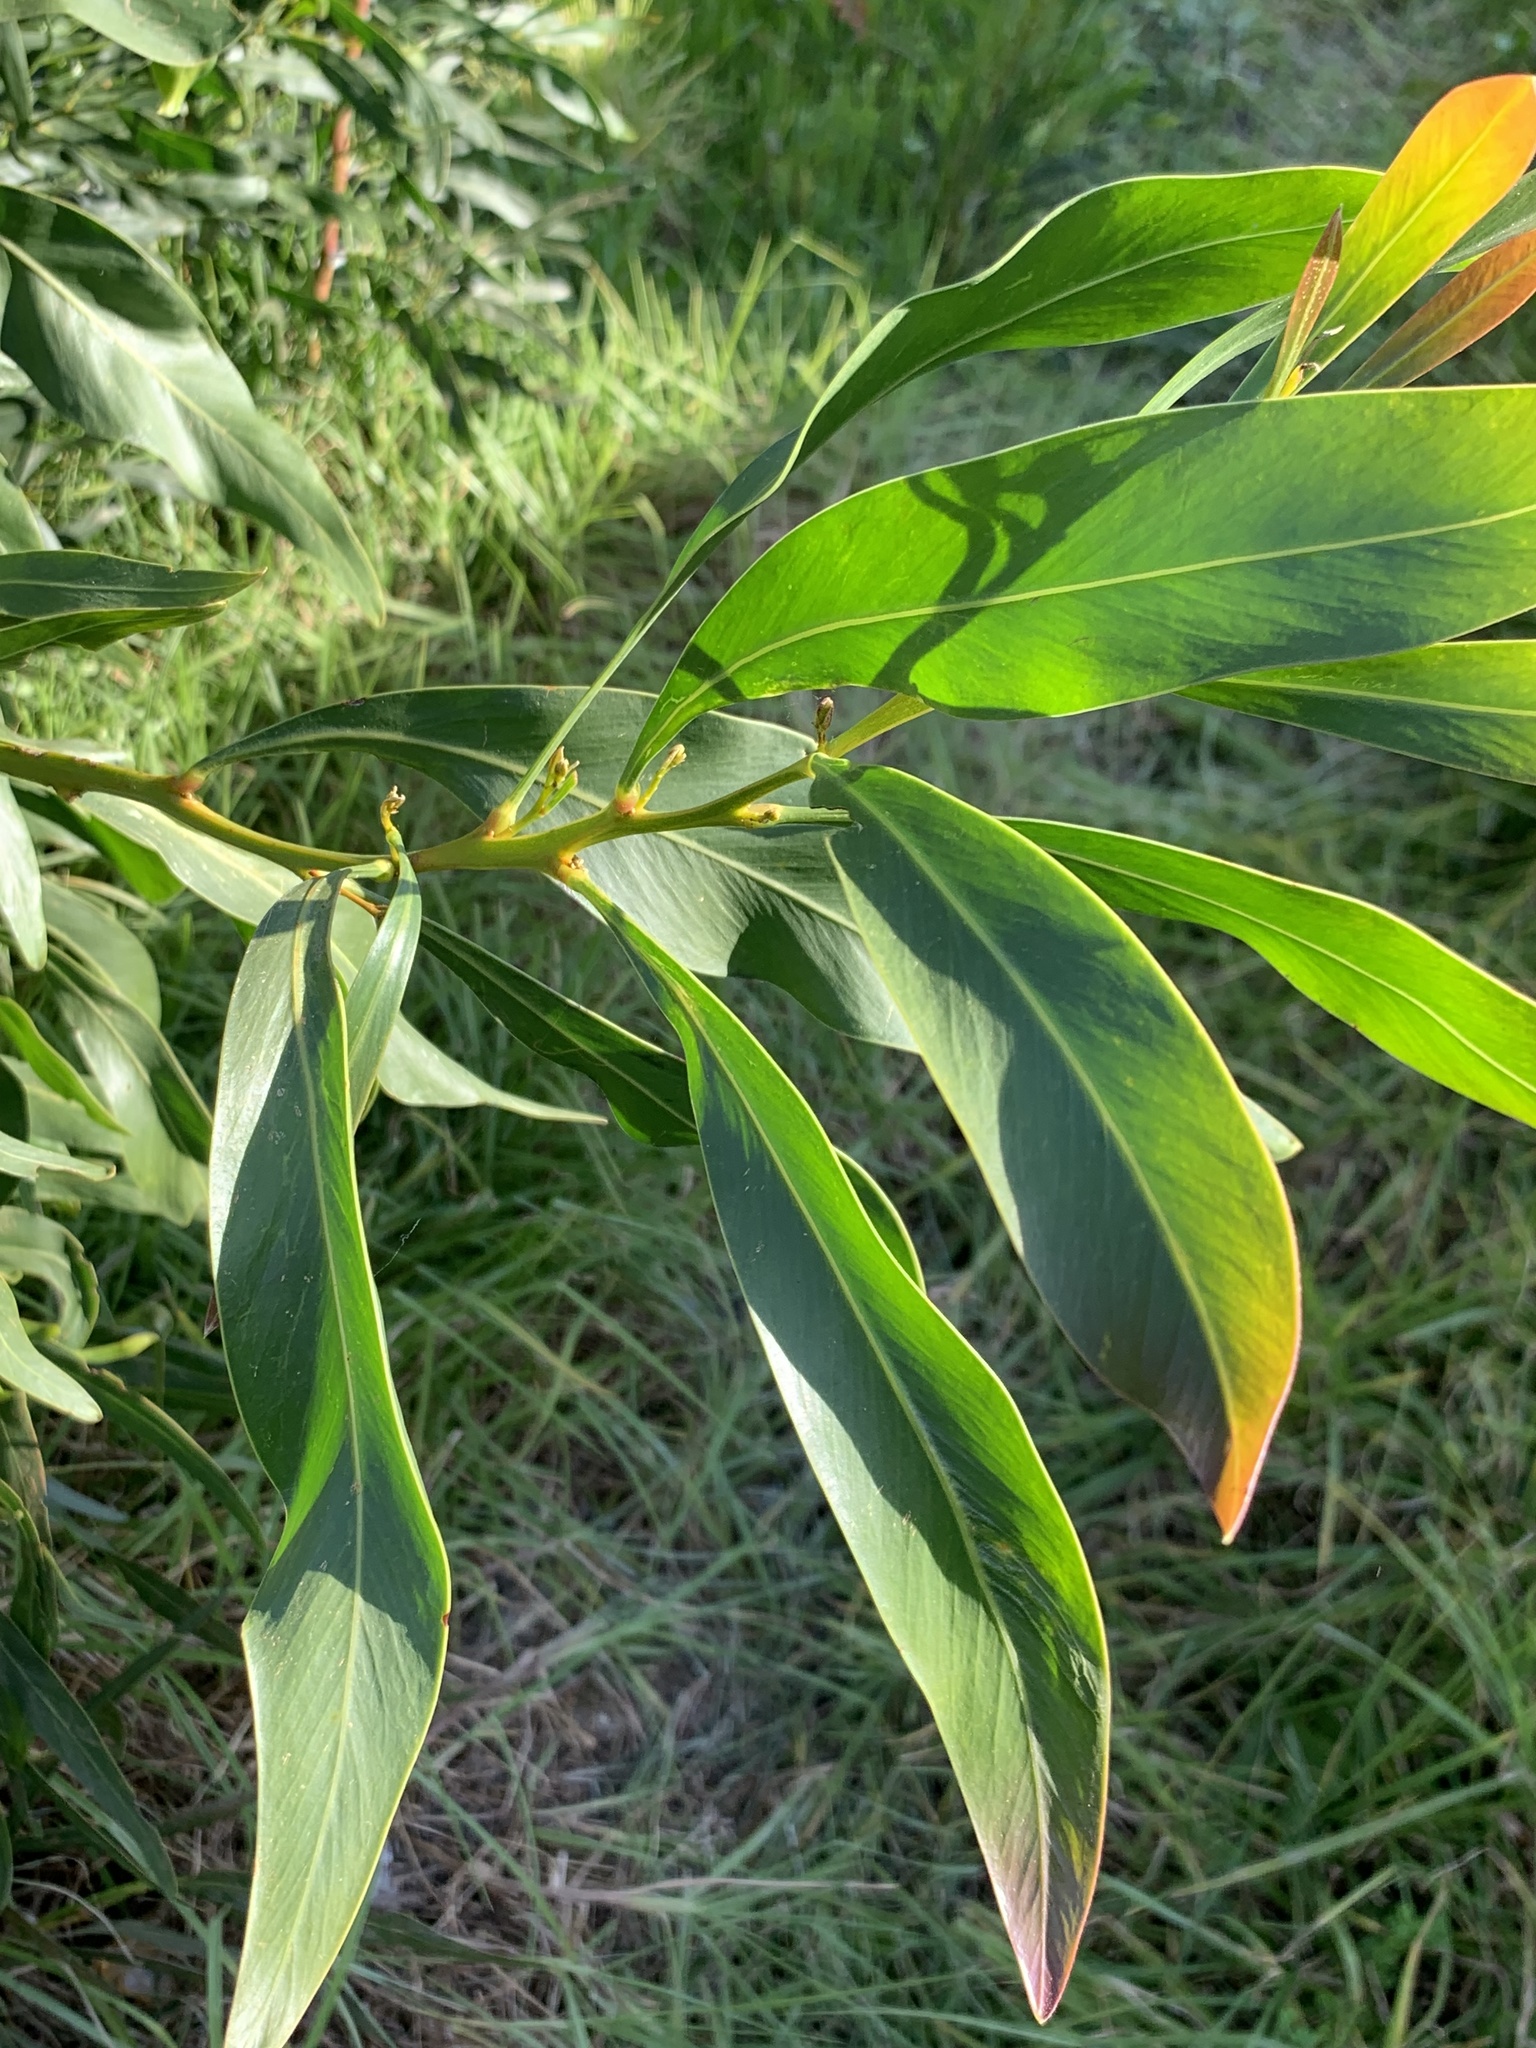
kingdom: Plantae
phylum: Tracheophyta
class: Magnoliopsida
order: Fabales
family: Fabaceae
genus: Acacia
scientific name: Acacia saligna
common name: Orange wattle
